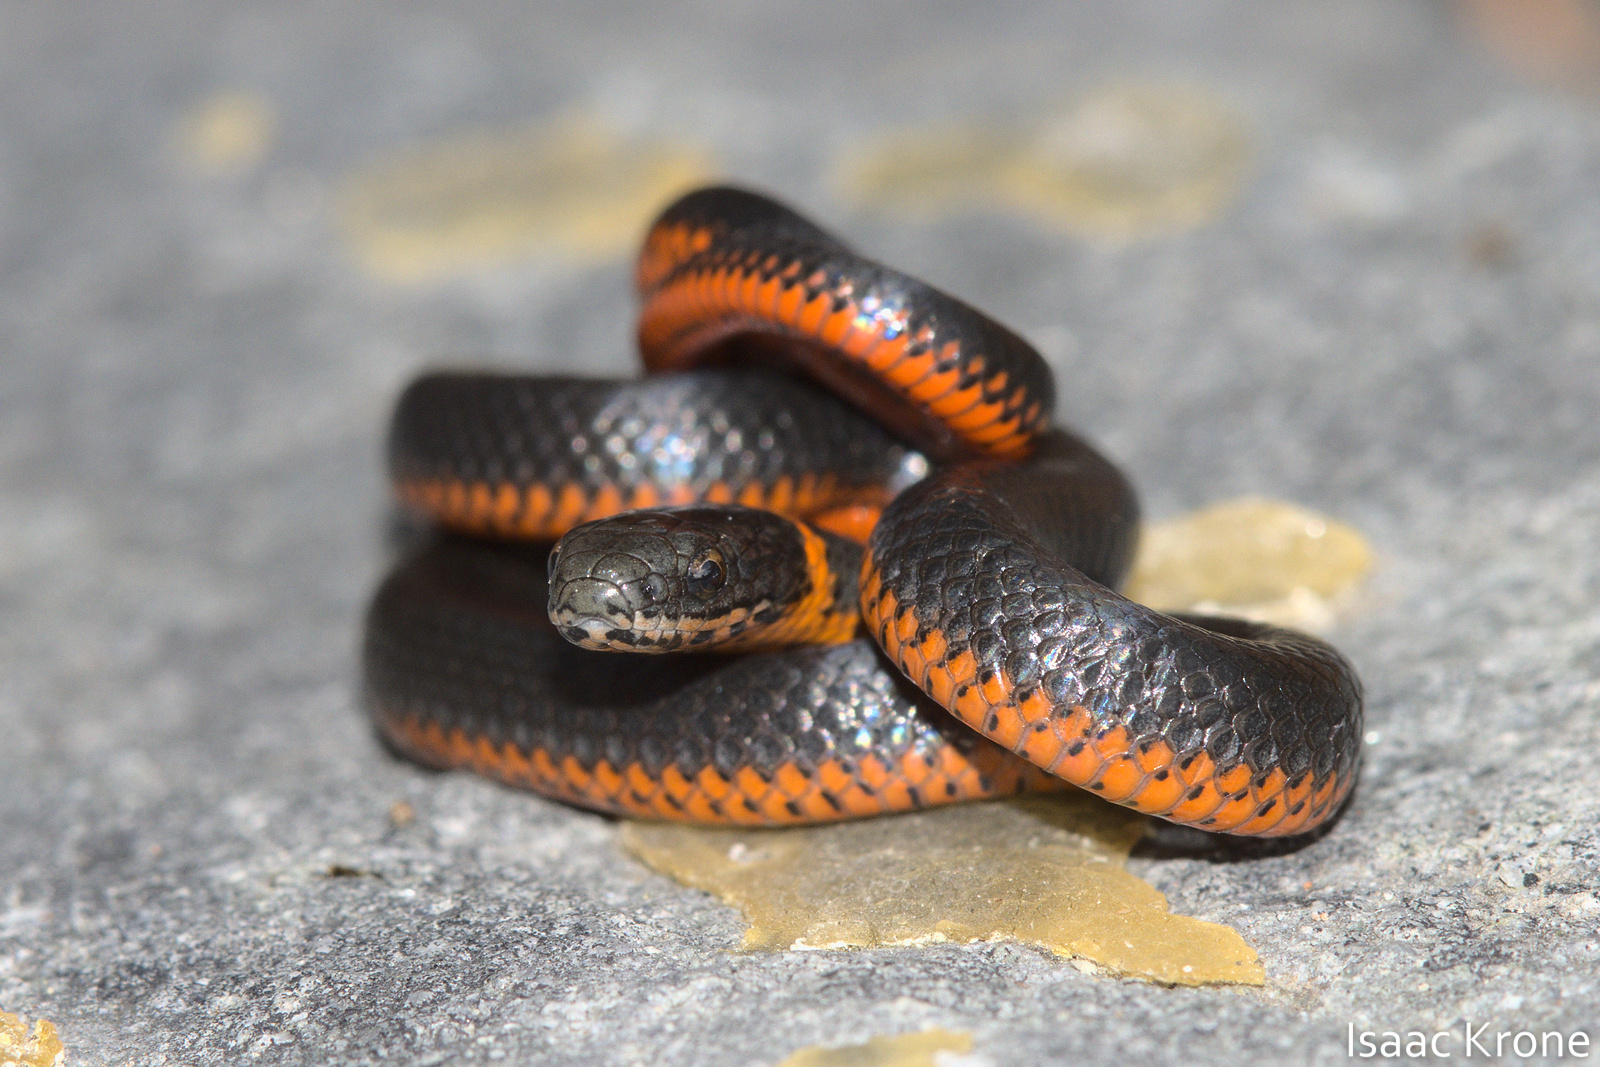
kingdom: Animalia
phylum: Chordata
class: Squamata
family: Colubridae
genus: Diadophis
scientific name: Diadophis punctatus
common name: Ringneck snake
